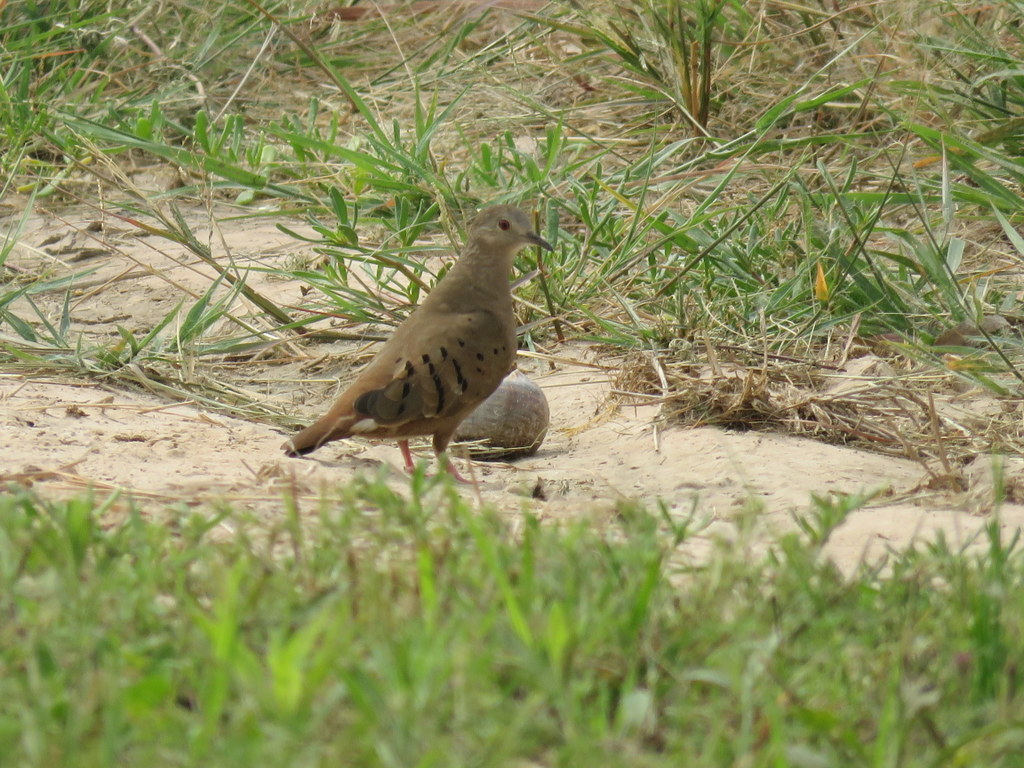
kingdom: Animalia
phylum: Chordata
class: Aves
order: Columbiformes
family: Columbidae
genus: Columbina
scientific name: Columbina talpacoti
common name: Ruddy ground dove
